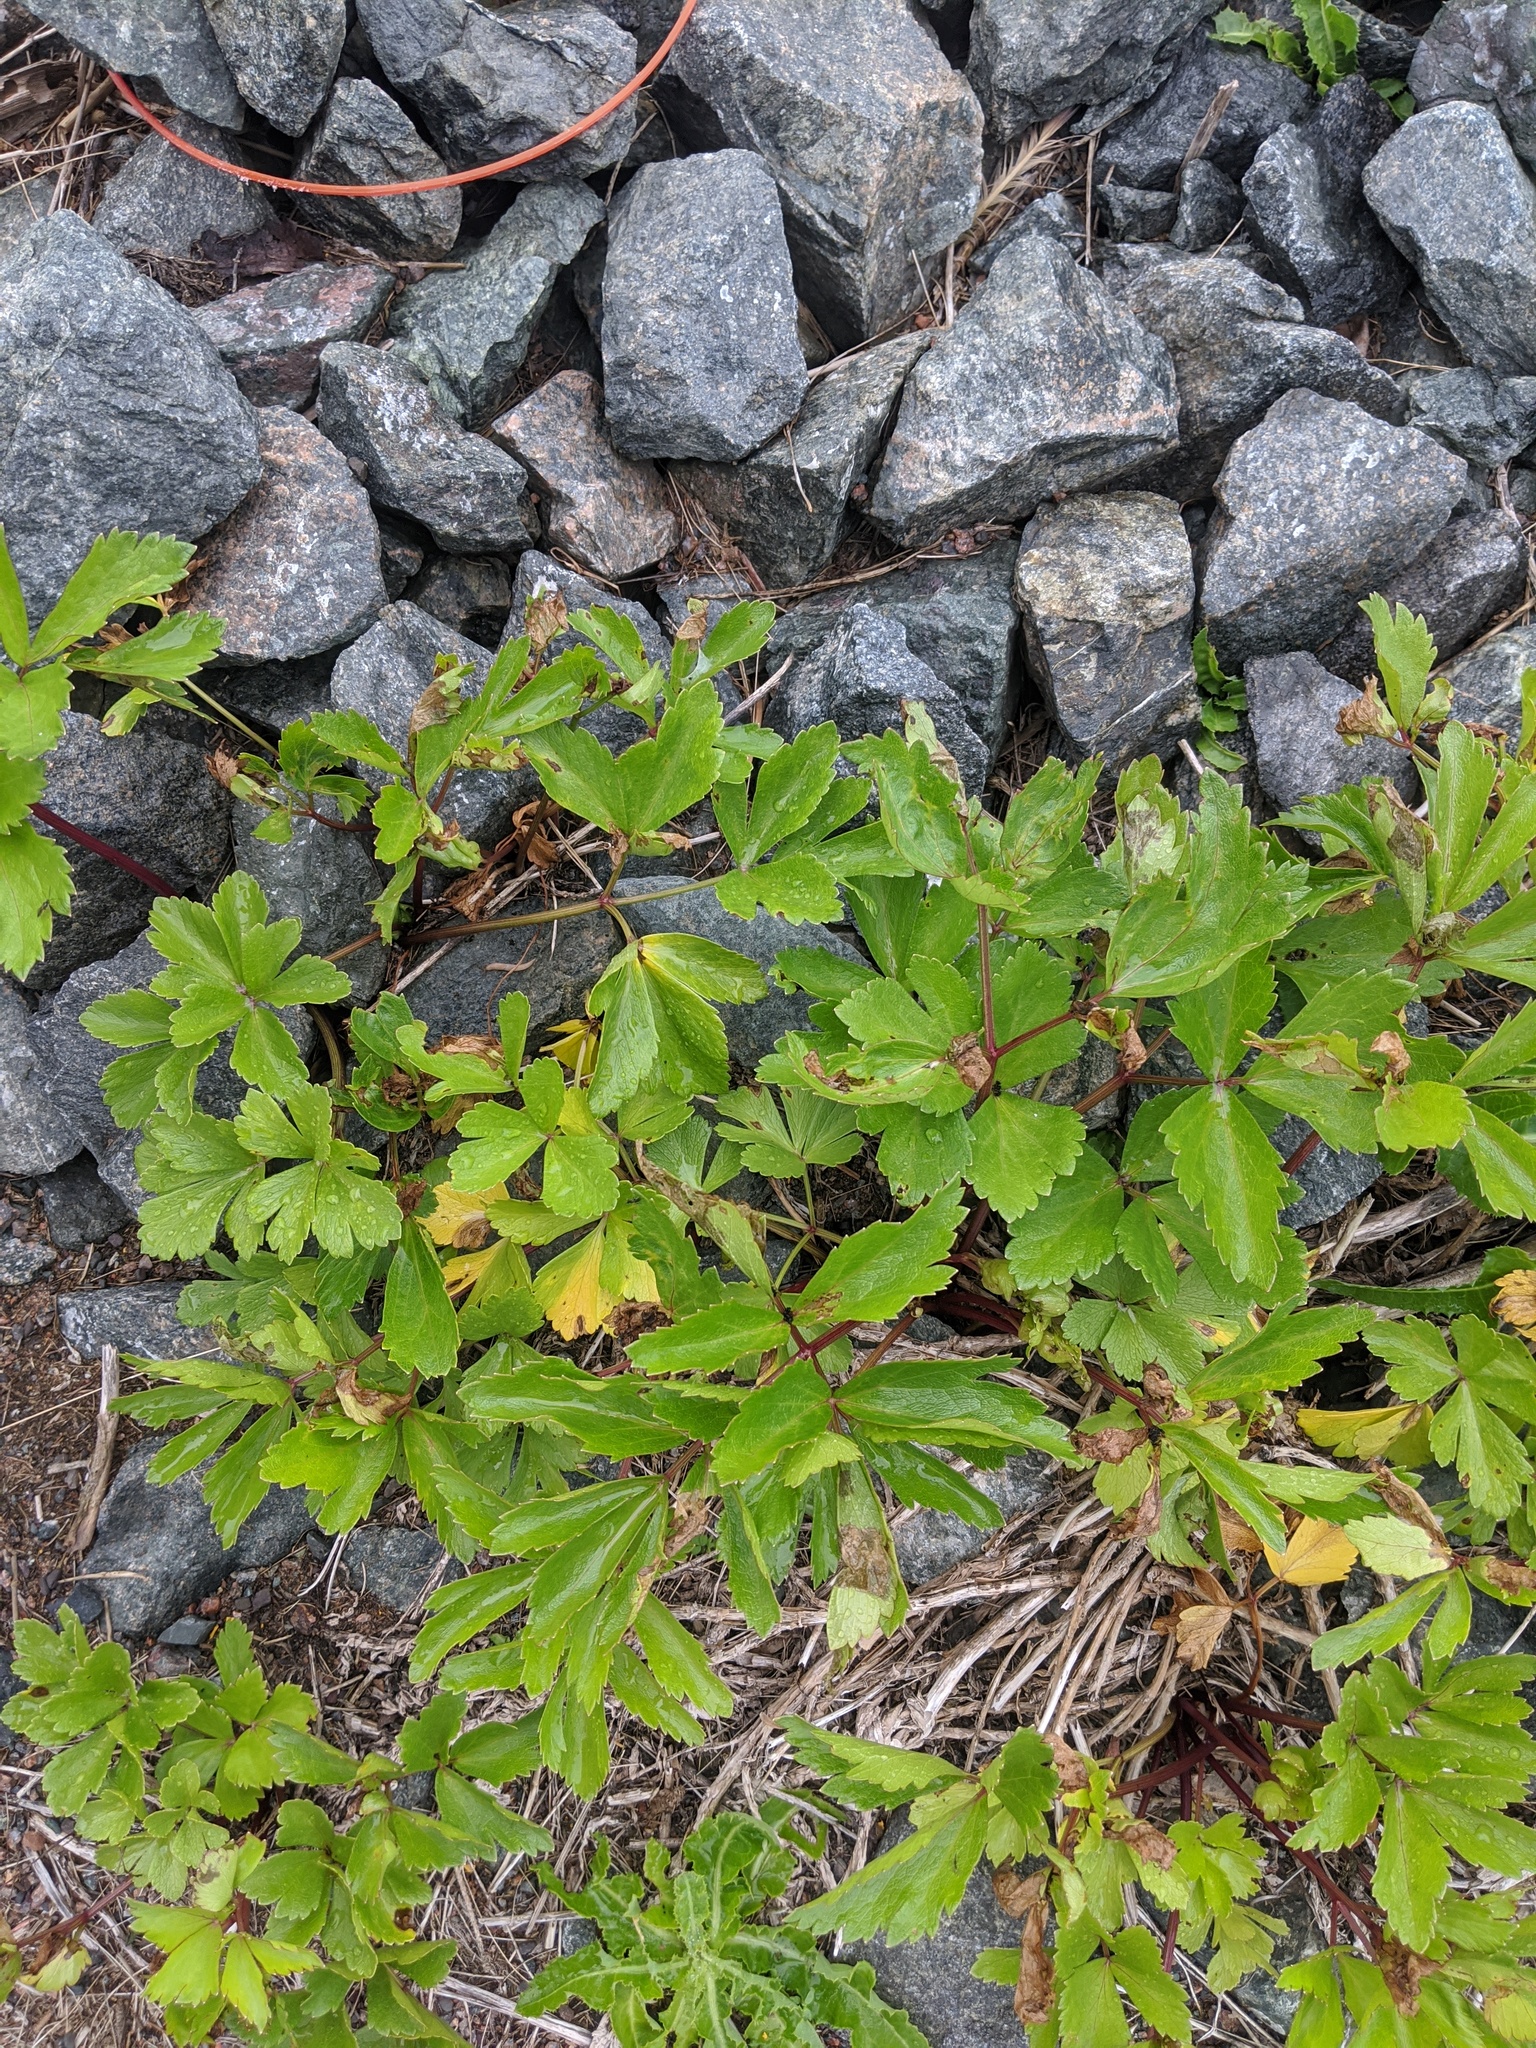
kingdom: Plantae
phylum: Tracheophyta
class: Magnoliopsida
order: Apiales
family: Apiaceae
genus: Ligusticum
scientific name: Ligusticum scothicum
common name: Beach lovage
